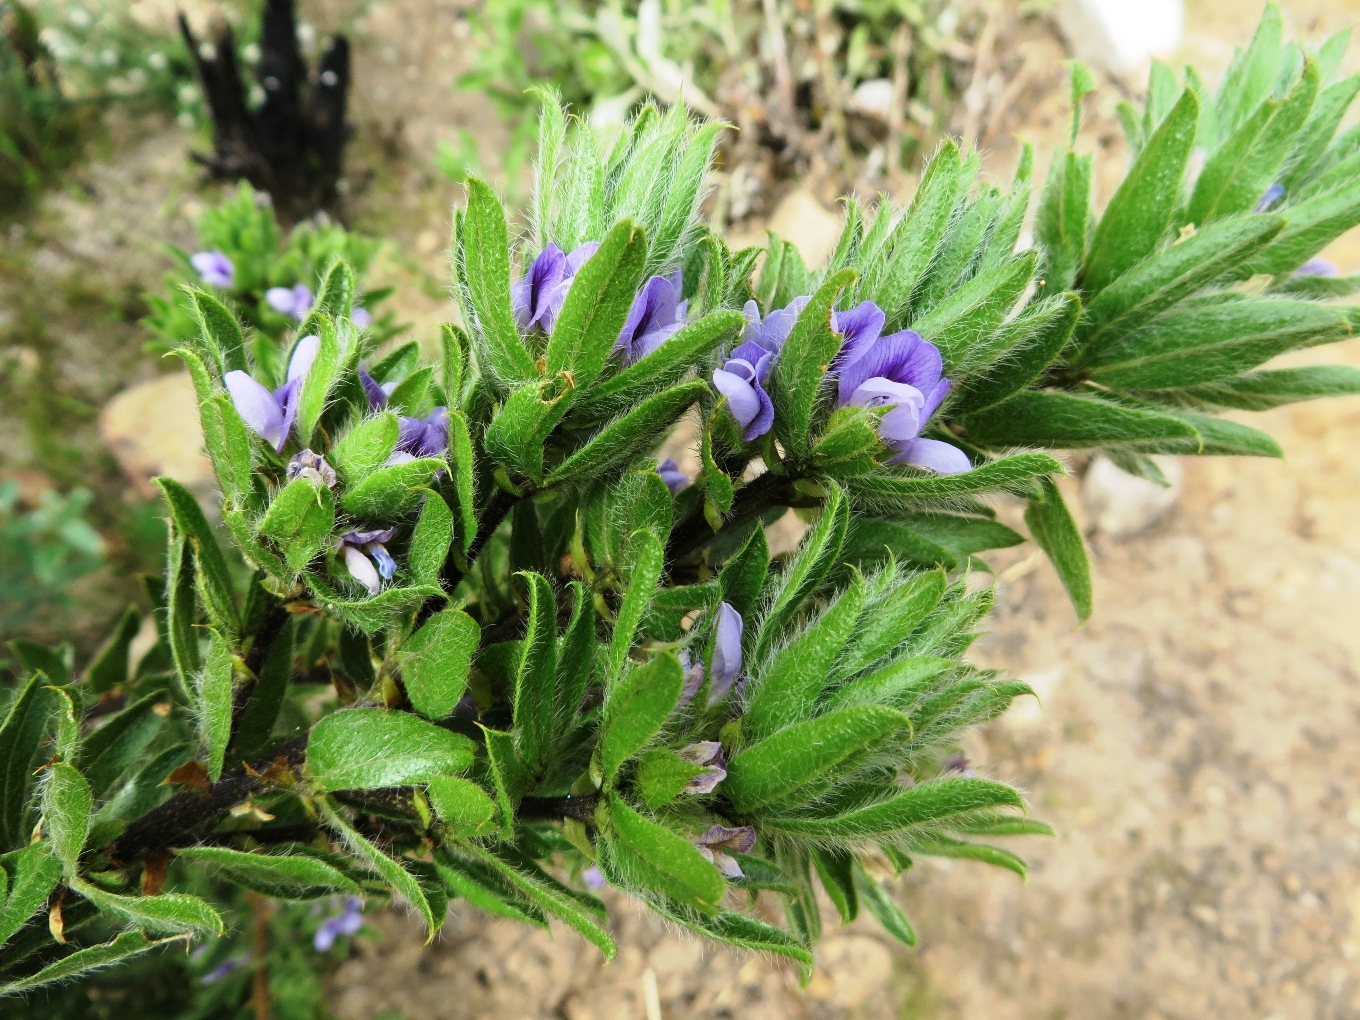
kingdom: Plantae
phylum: Tracheophyta
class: Magnoliopsida
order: Fabales
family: Fabaceae
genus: Psoralea
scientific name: Psoralea obliqua
